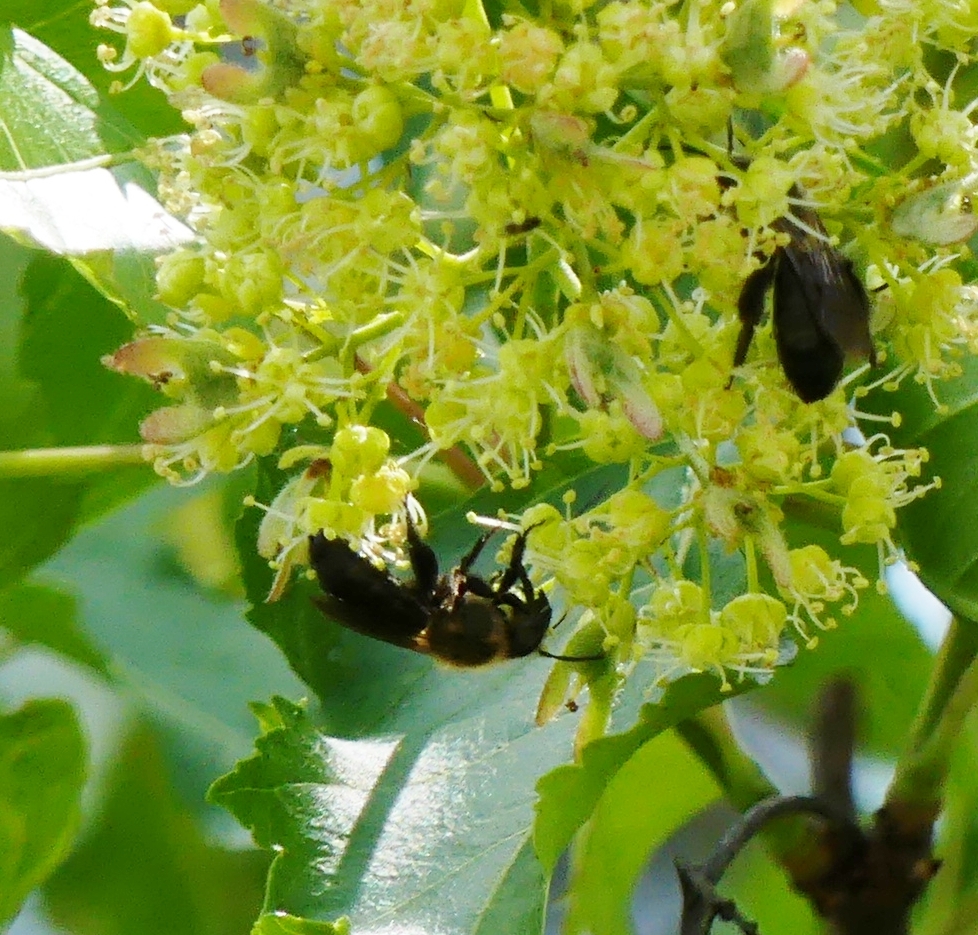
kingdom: Animalia
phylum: Arthropoda
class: Insecta
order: Hymenoptera
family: Apidae
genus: Xylocopa
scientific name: Xylocopa virginica
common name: Carpenter bee
